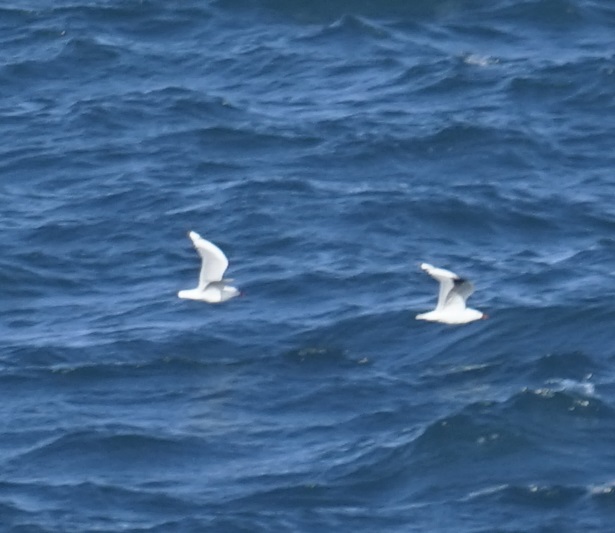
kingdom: Animalia
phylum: Chordata
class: Aves
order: Charadriiformes
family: Laridae
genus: Chroicocephalus
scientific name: Chroicocephalus novaehollandiae
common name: Silver gull
